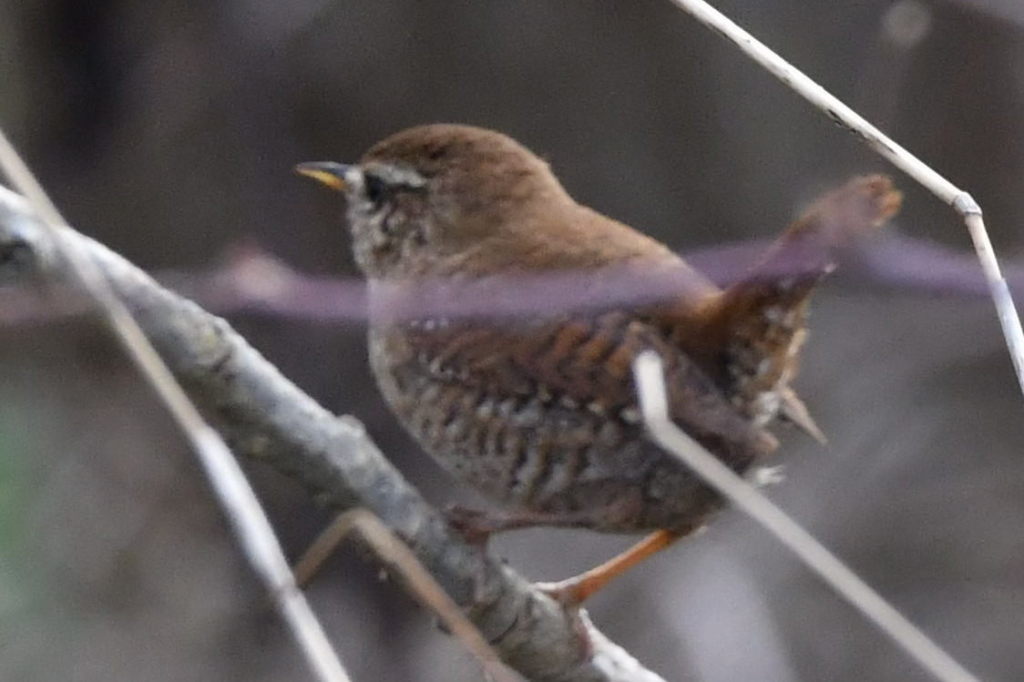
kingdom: Animalia
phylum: Chordata
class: Aves
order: Passeriformes
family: Troglodytidae
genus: Troglodytes
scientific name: Troglodytes troglodytes
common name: Eurasian wren
